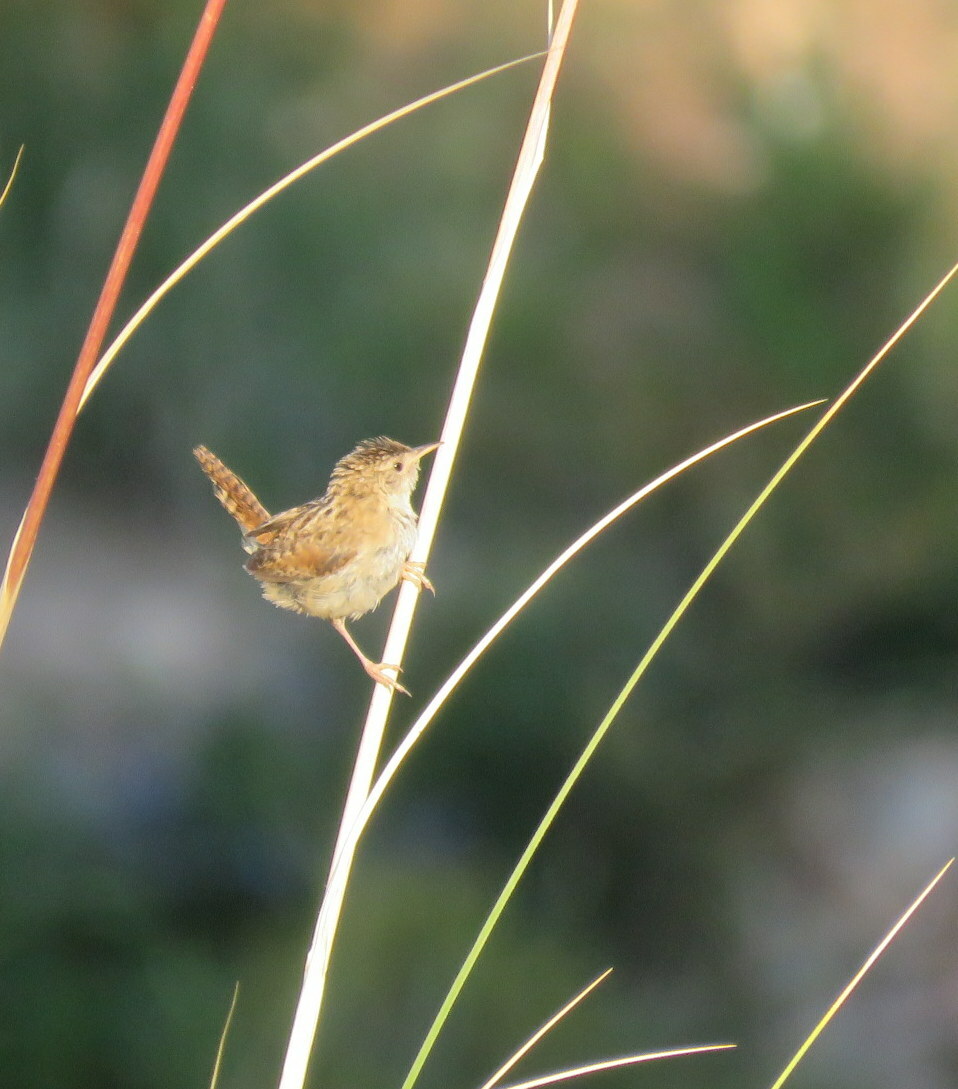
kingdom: Animalia
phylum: Chordata
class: Aves
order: Passeriformes
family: Troglodytidae
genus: Cistothorus
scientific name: Cistothorus platensis
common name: Sedge wren
